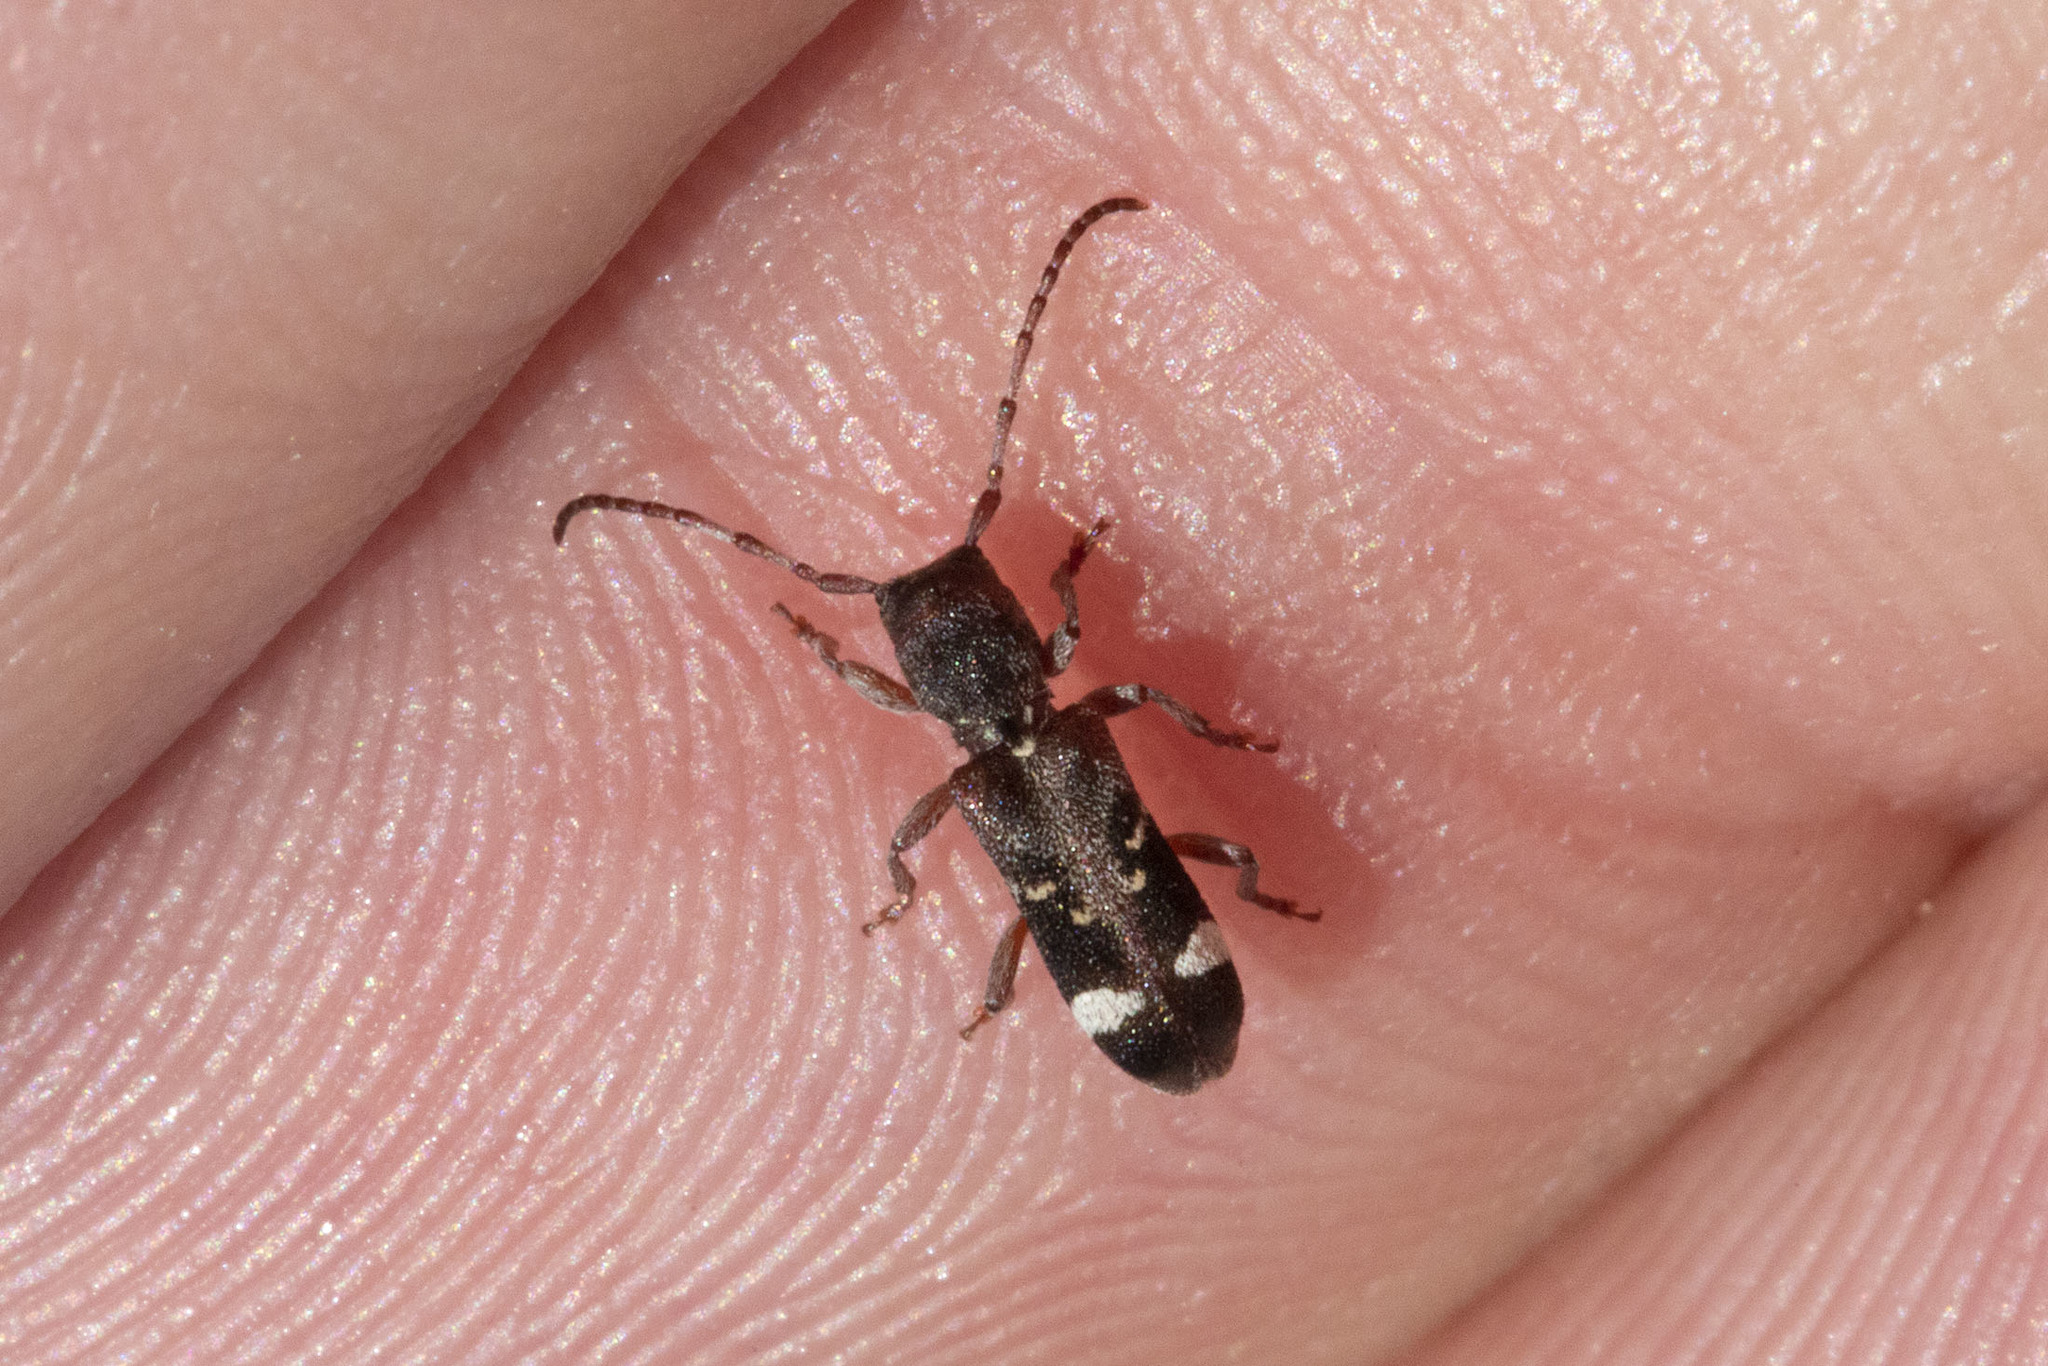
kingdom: Animalia
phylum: Arthropoda
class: Insecta
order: Coleoptera
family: Cerambycidae
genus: Psenocerus
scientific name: Psenocerus supernotatus
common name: Currant-tip borer
